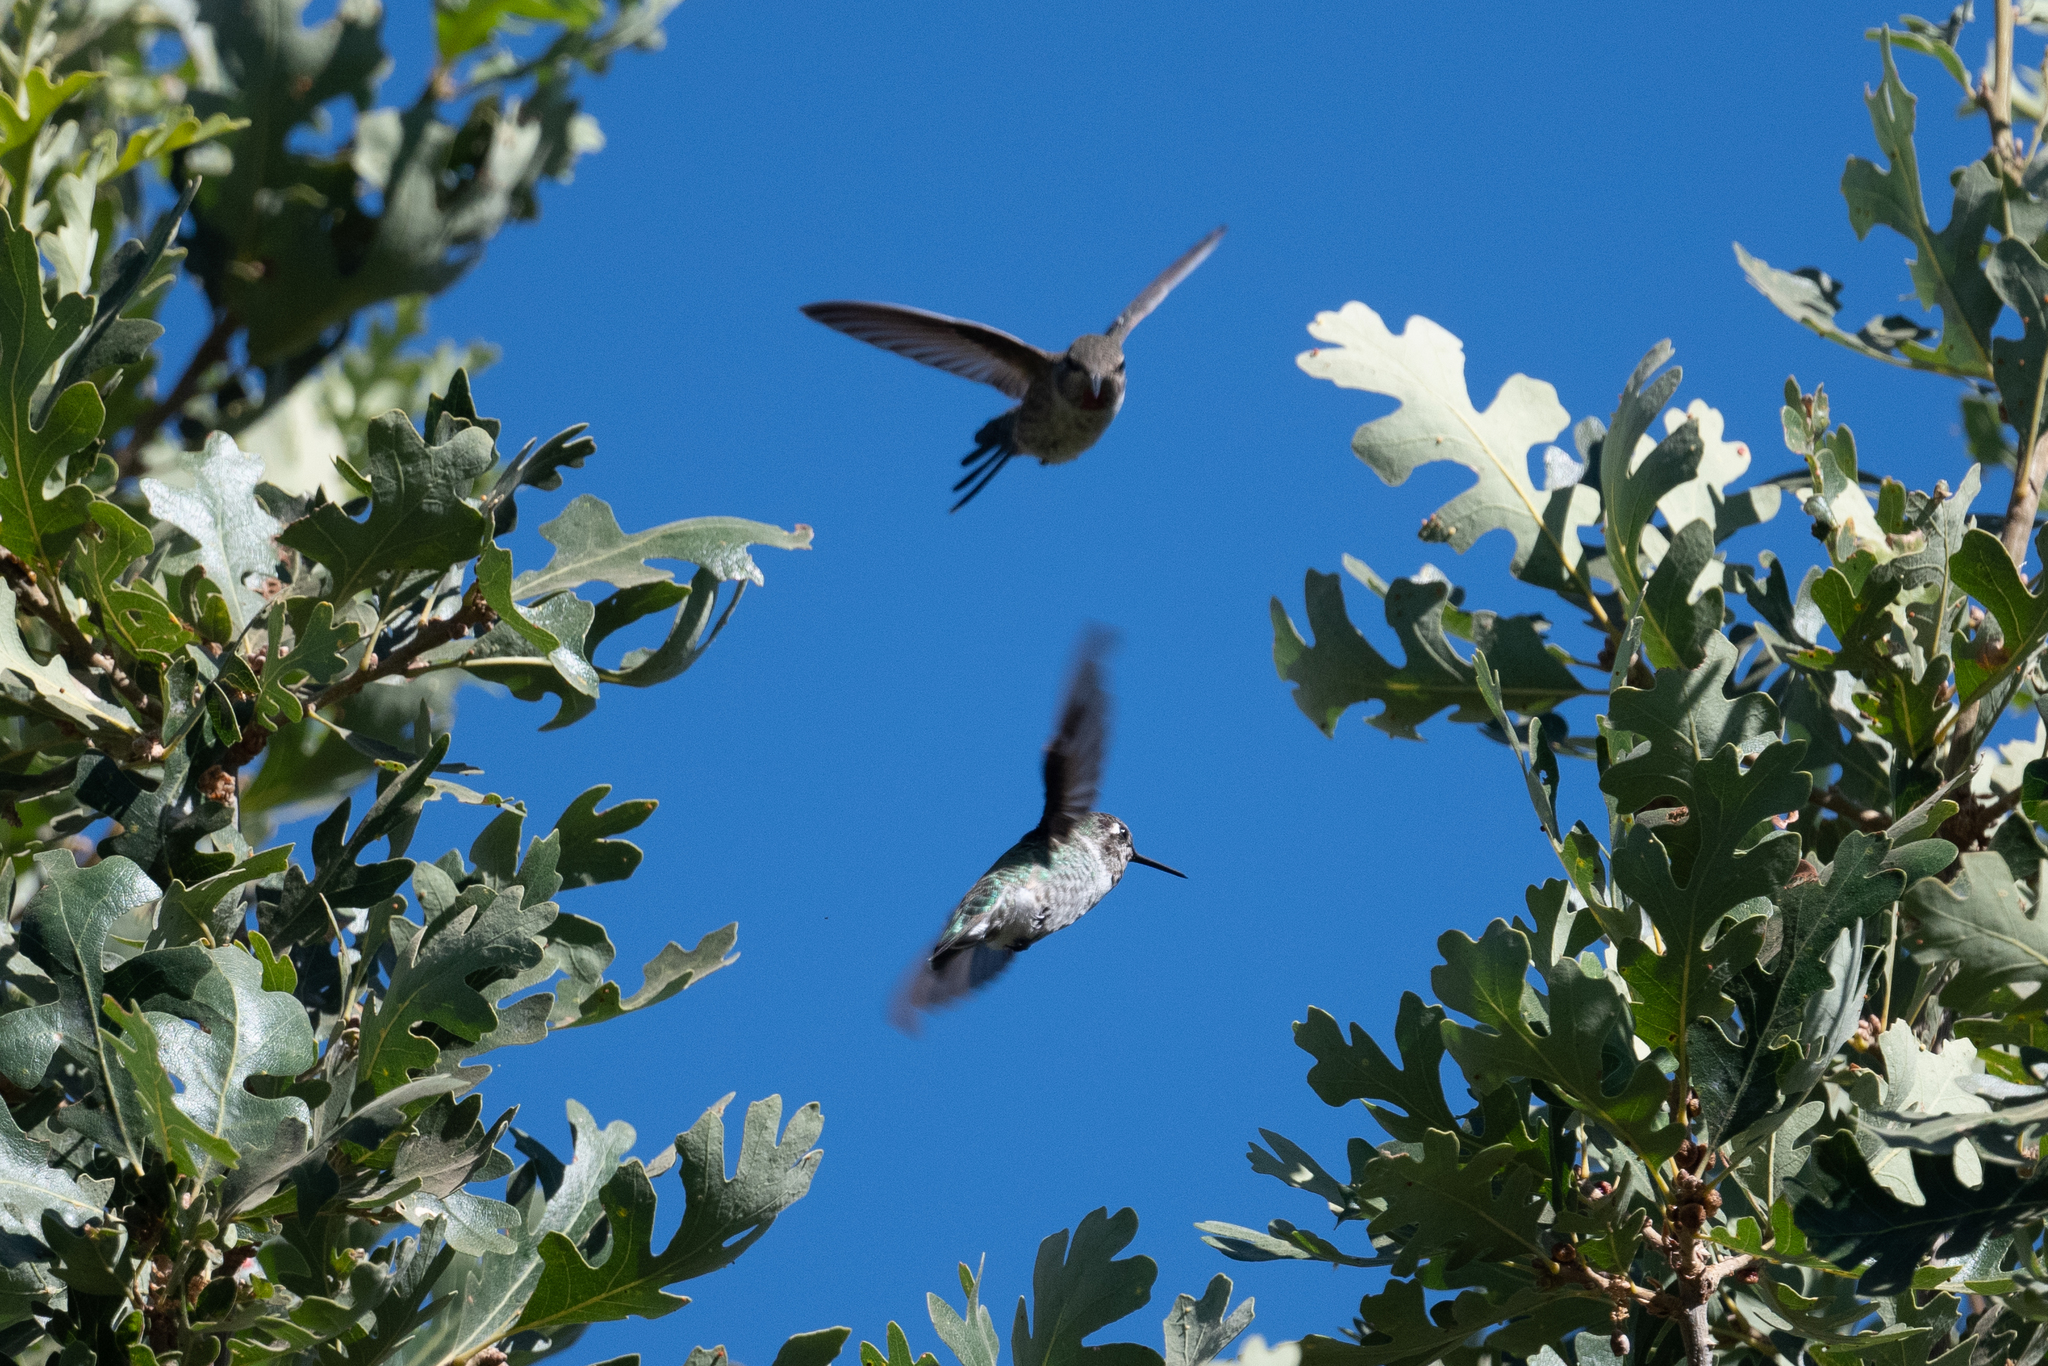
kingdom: Animalia
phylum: Chordata
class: Aves
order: Apodiformes
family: Trochilidae
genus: Calypte
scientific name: Calypte anna
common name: Anna's hummingbird
